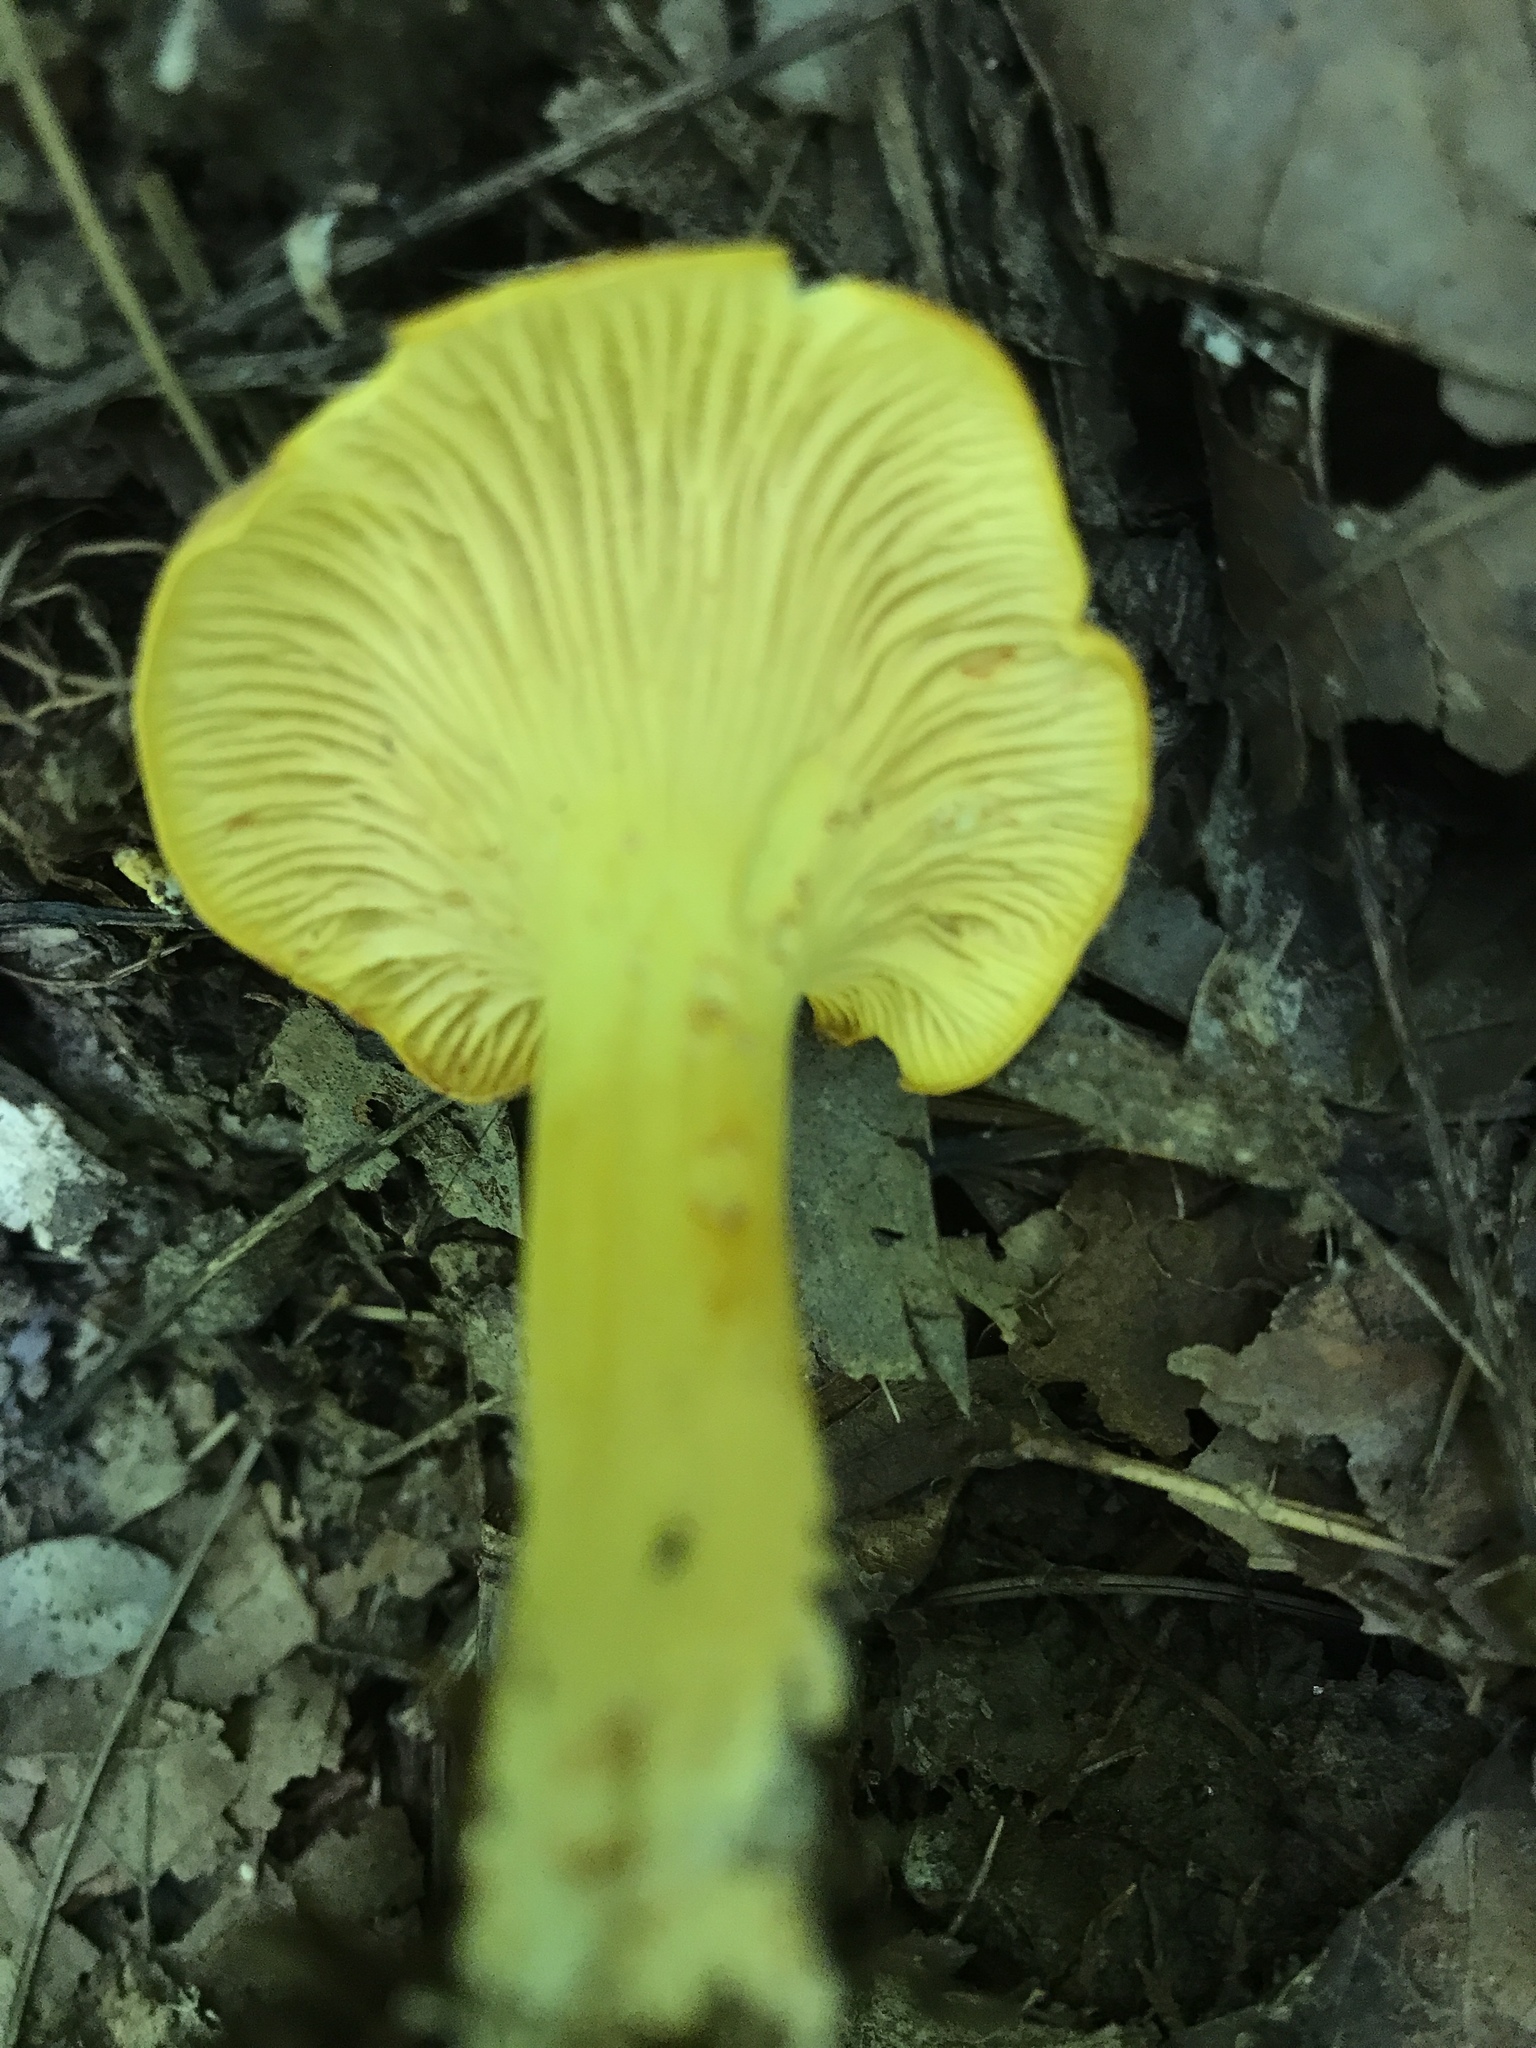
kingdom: Fungi
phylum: Basidiomycota
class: Agaricomycetes
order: Cantharellales
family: Hydnaceae
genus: Cantharellus
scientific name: Cantharellus lewisii
